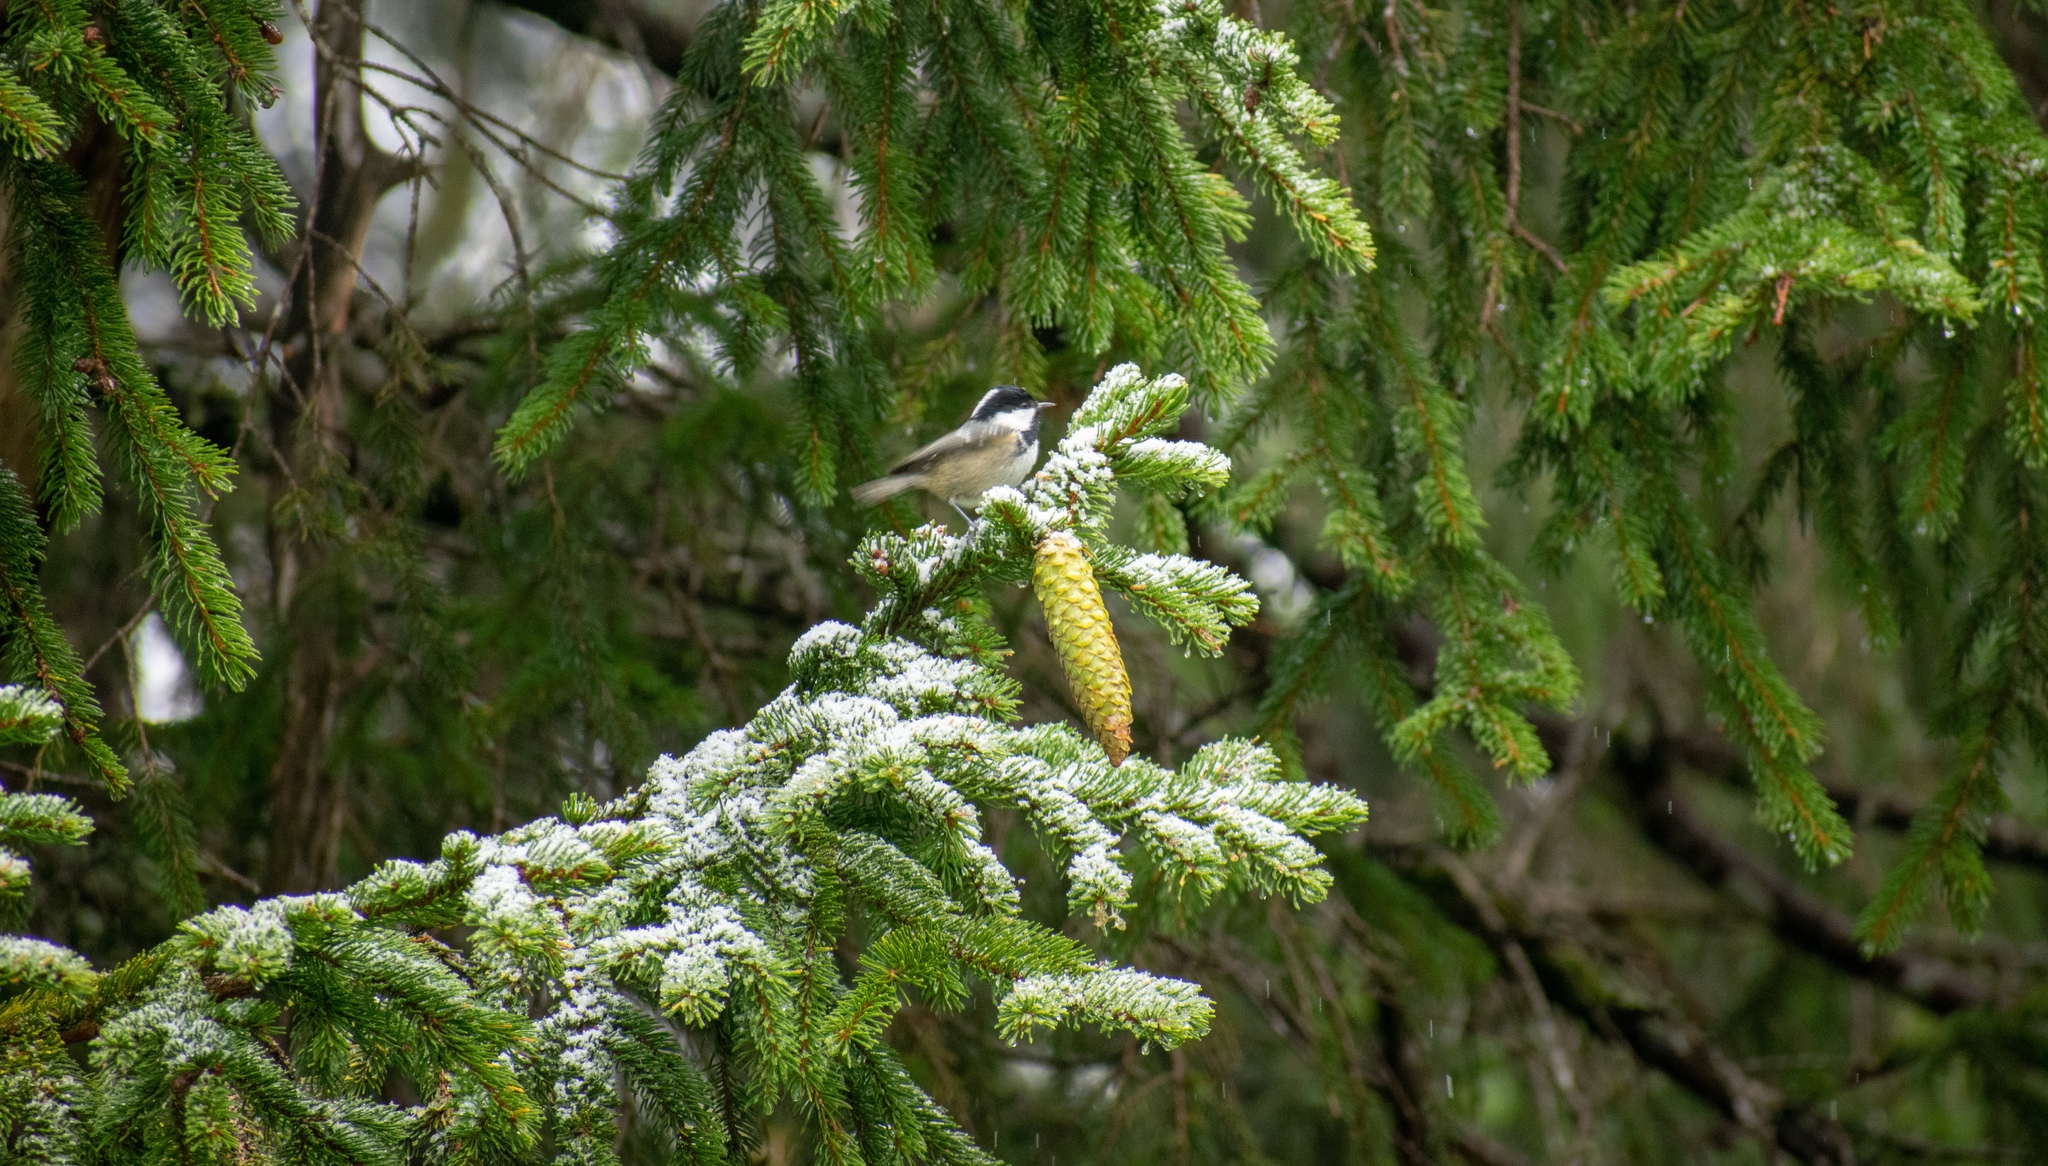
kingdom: Animalia
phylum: Chordata
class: Aves
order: Passeriformes
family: Paridae
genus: Periparus
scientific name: Periparus ater
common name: Coal tit
